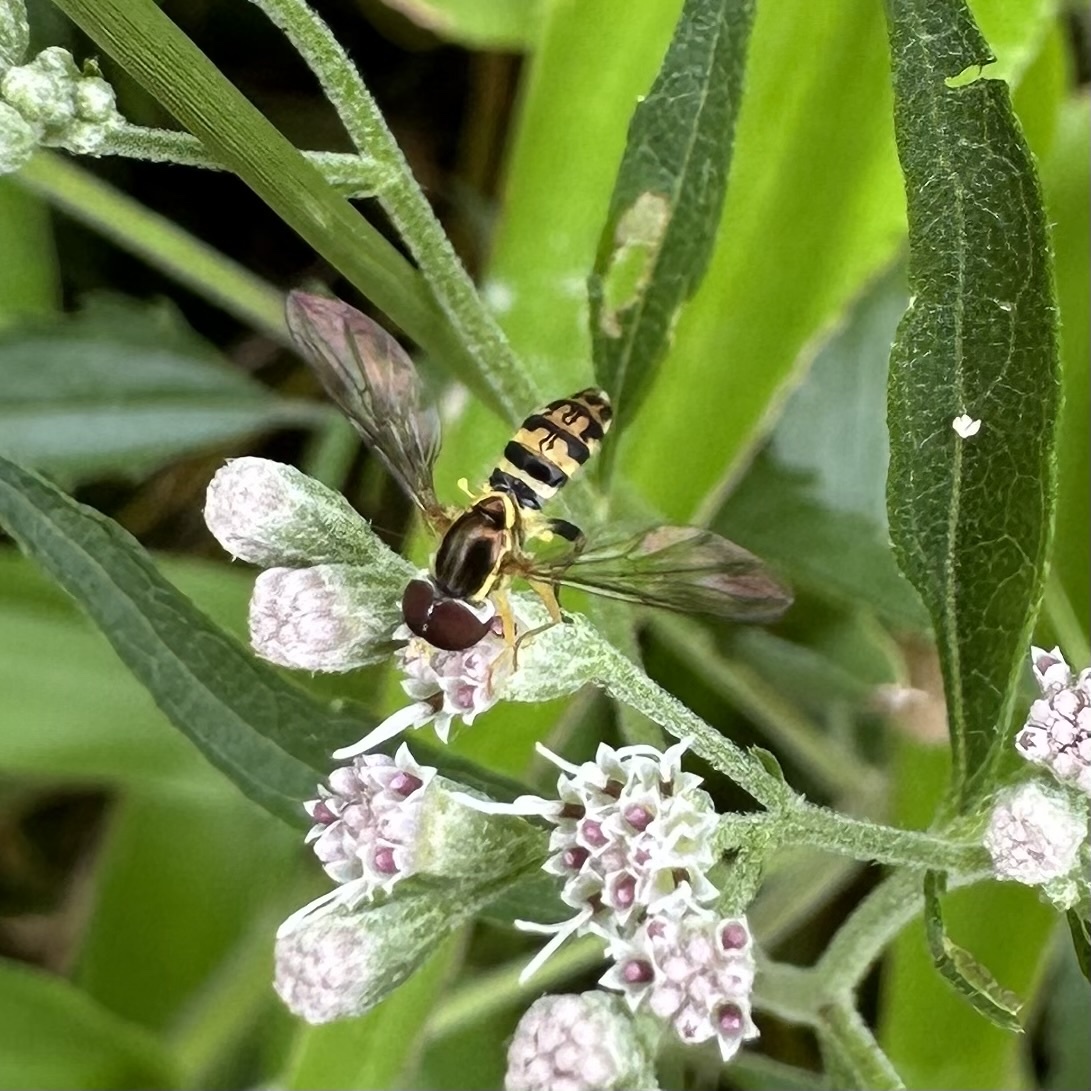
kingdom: Animalia
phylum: Arthropoda
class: Insecta
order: Diptera
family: Syrphidae
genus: Toxomerus
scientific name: Toxomerus geminatus
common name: Eastern calligrapher
